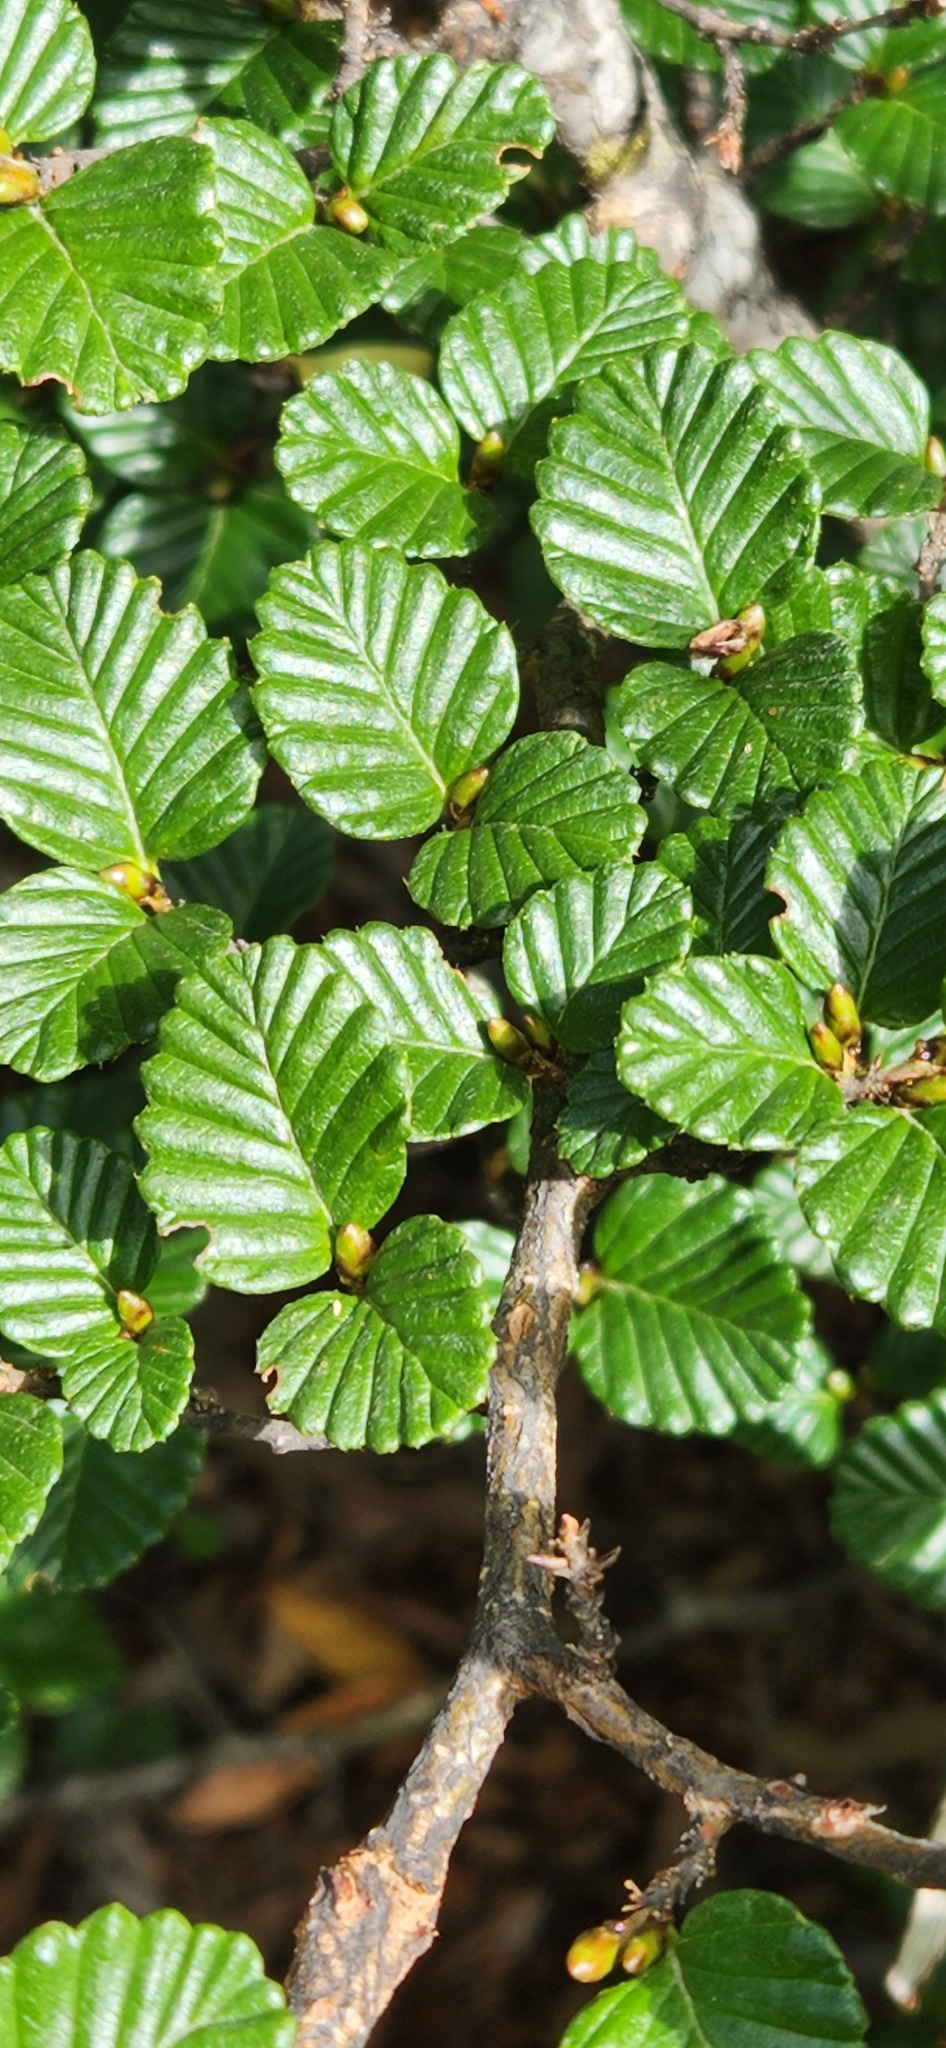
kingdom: Plantae
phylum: Tracheophyta
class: Magnoliopsida
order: Fagales
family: Nothofagaceae
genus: Nothofagus
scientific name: Nothofagus gunnii
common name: Tanglefoot
